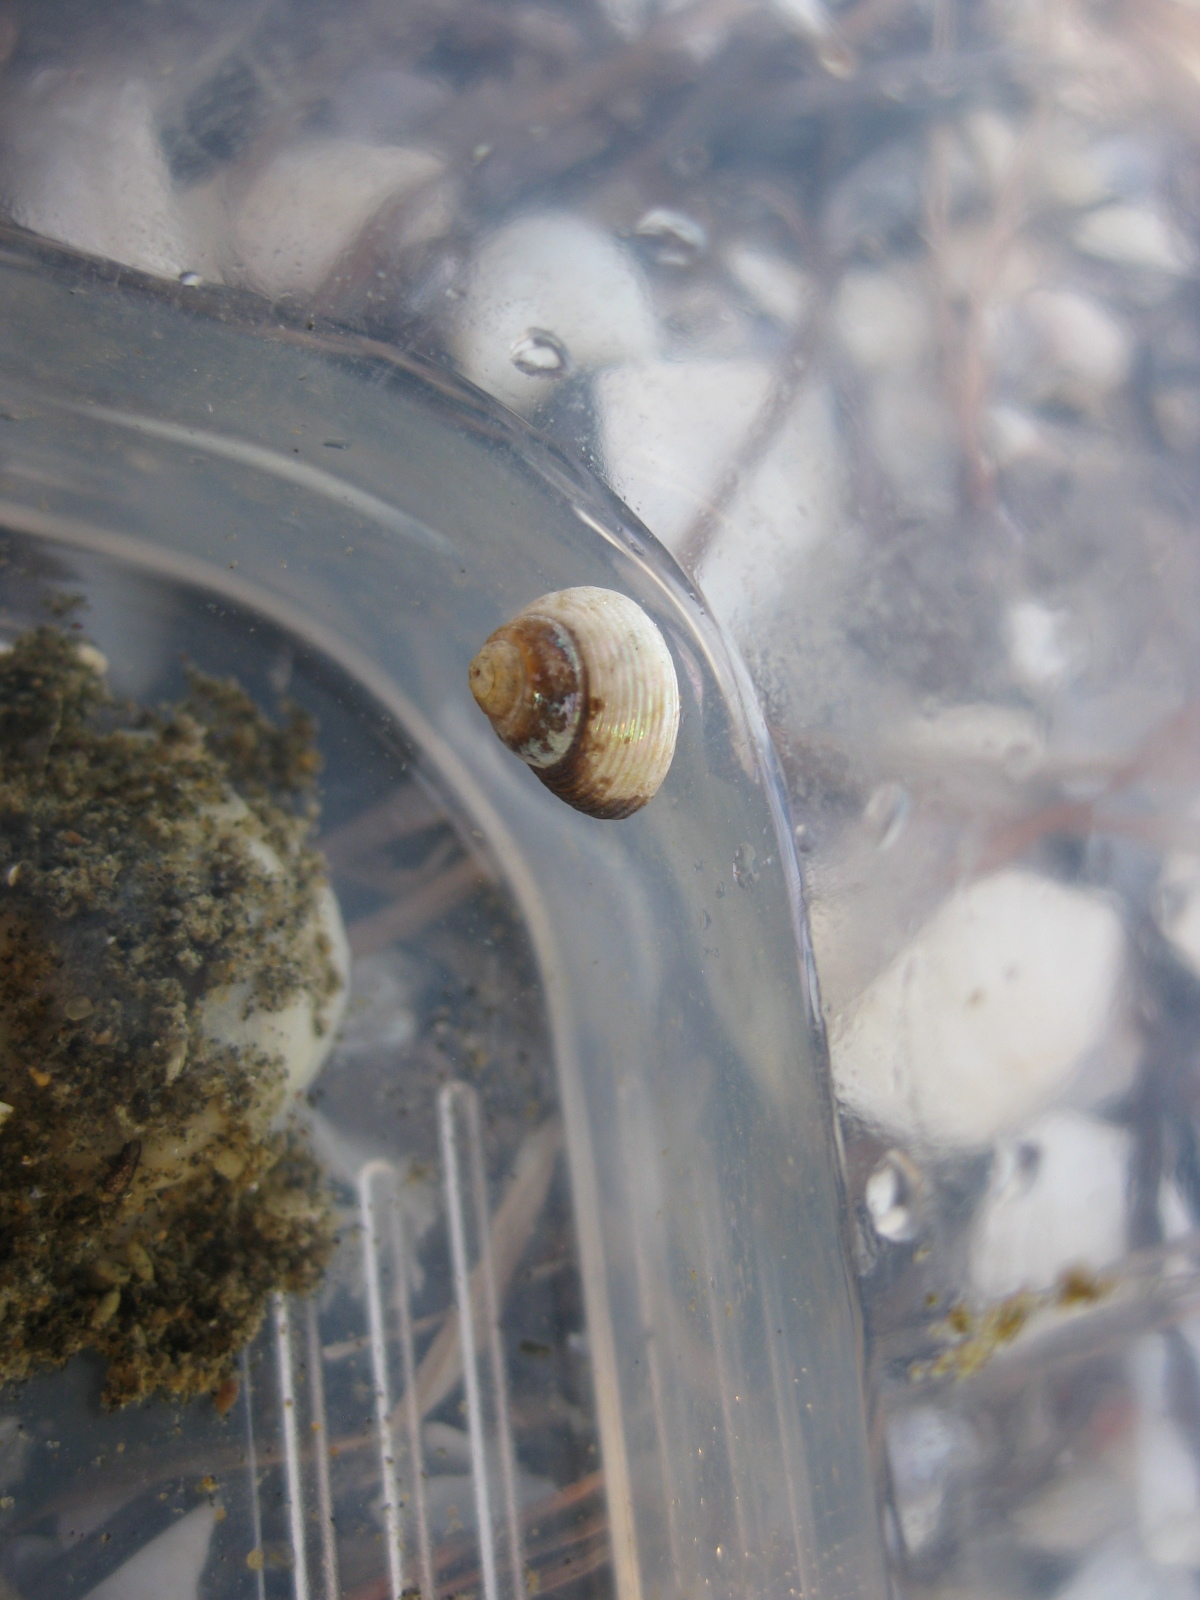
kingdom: Animalia
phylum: Mollusca
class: Gastropoda
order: Trochida
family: Trochidae
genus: Micrelenchus
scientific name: Micrelenchus huttonii
